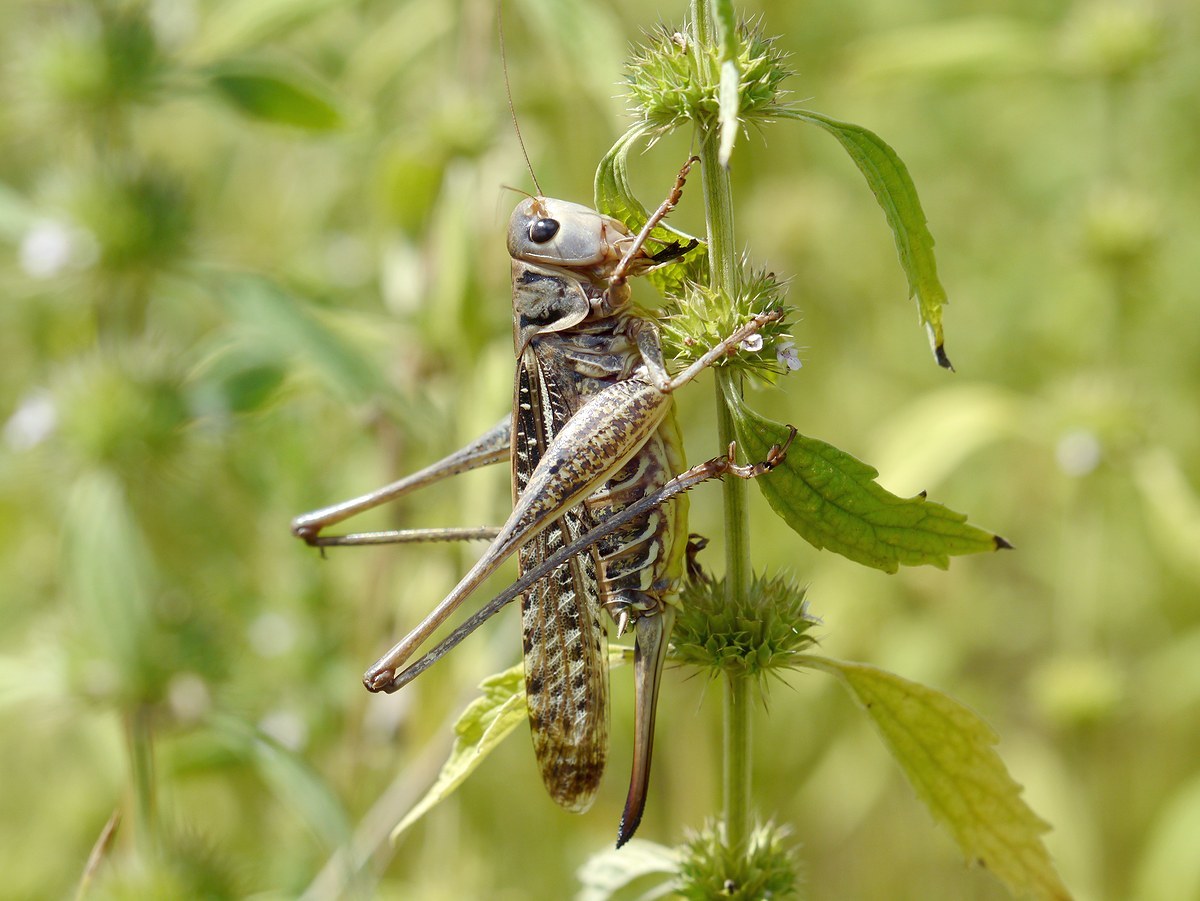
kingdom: Animalia
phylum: Arthropoda
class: Insecta
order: Orthoptera
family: Tettigoniidae
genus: Decticus
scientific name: Decticus albifrons
